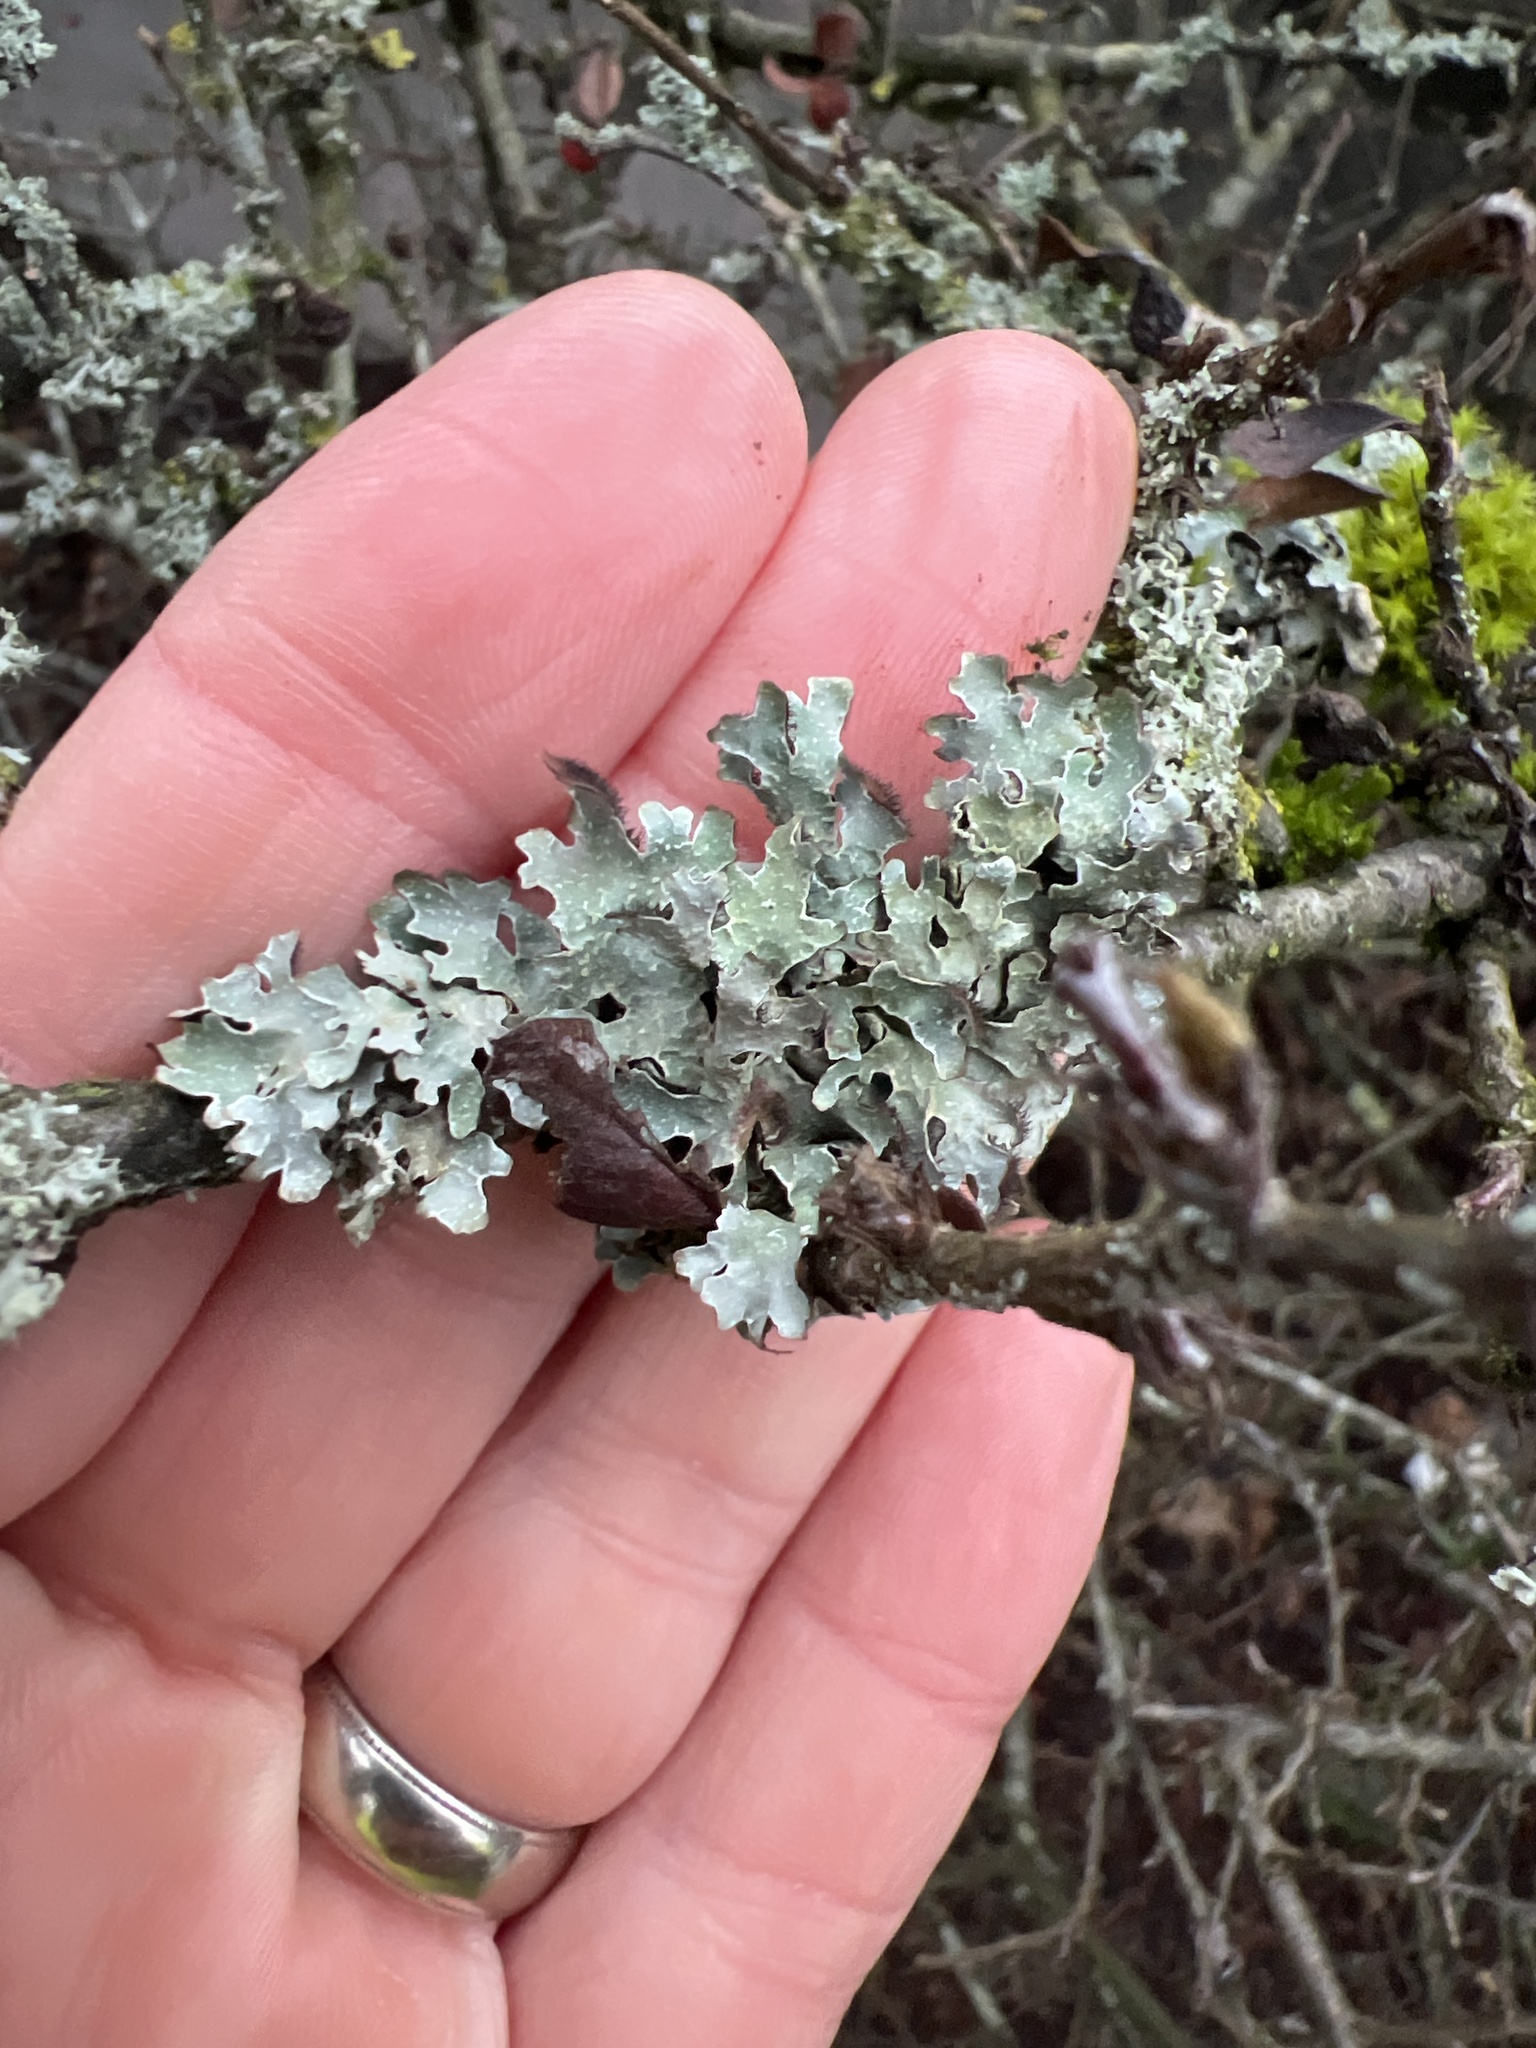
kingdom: Fungi
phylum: Ascomycota
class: Lecanoromycetes
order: Lecanorales
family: Parmeliaceae
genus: Parmelia
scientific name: Parmelia sulcata
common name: Netted shield lichen
